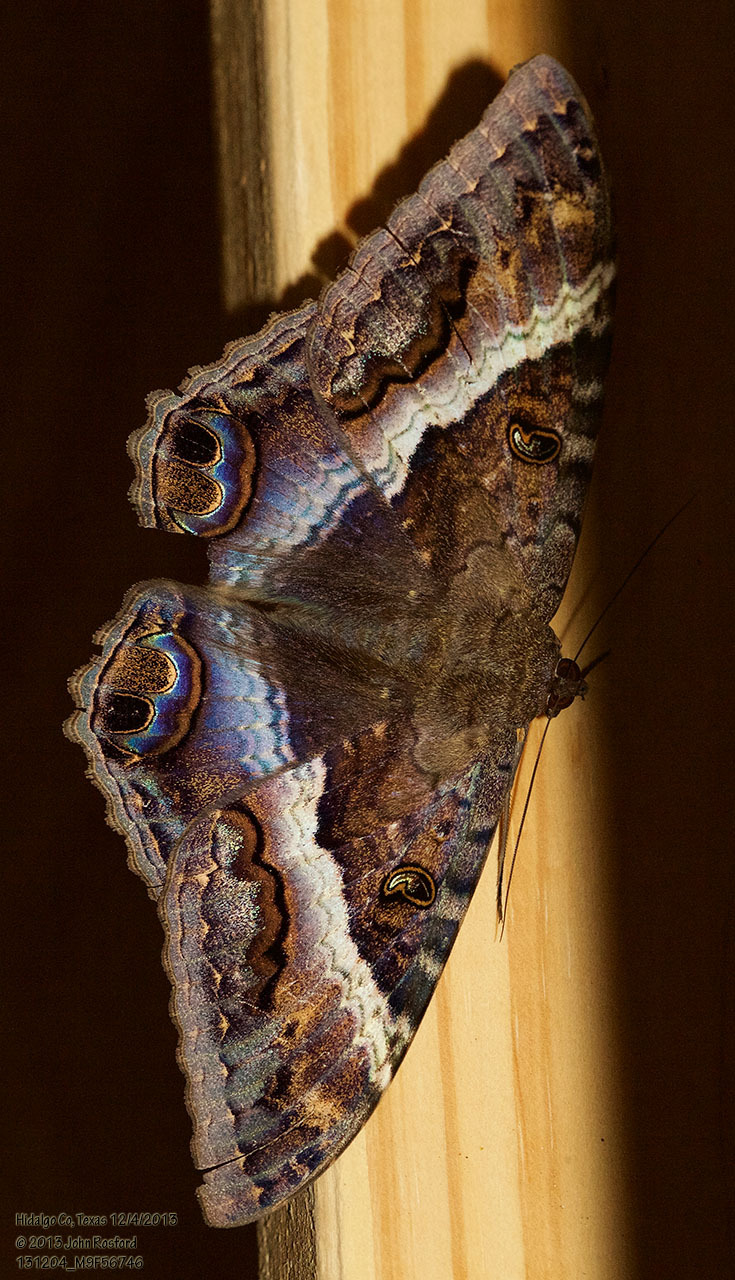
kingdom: Animalia
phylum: Arthropoda
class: Insecta
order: Lepidoptera
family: Erebidae
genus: Ascalapha
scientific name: Ascalapha odorata
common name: Black witch
